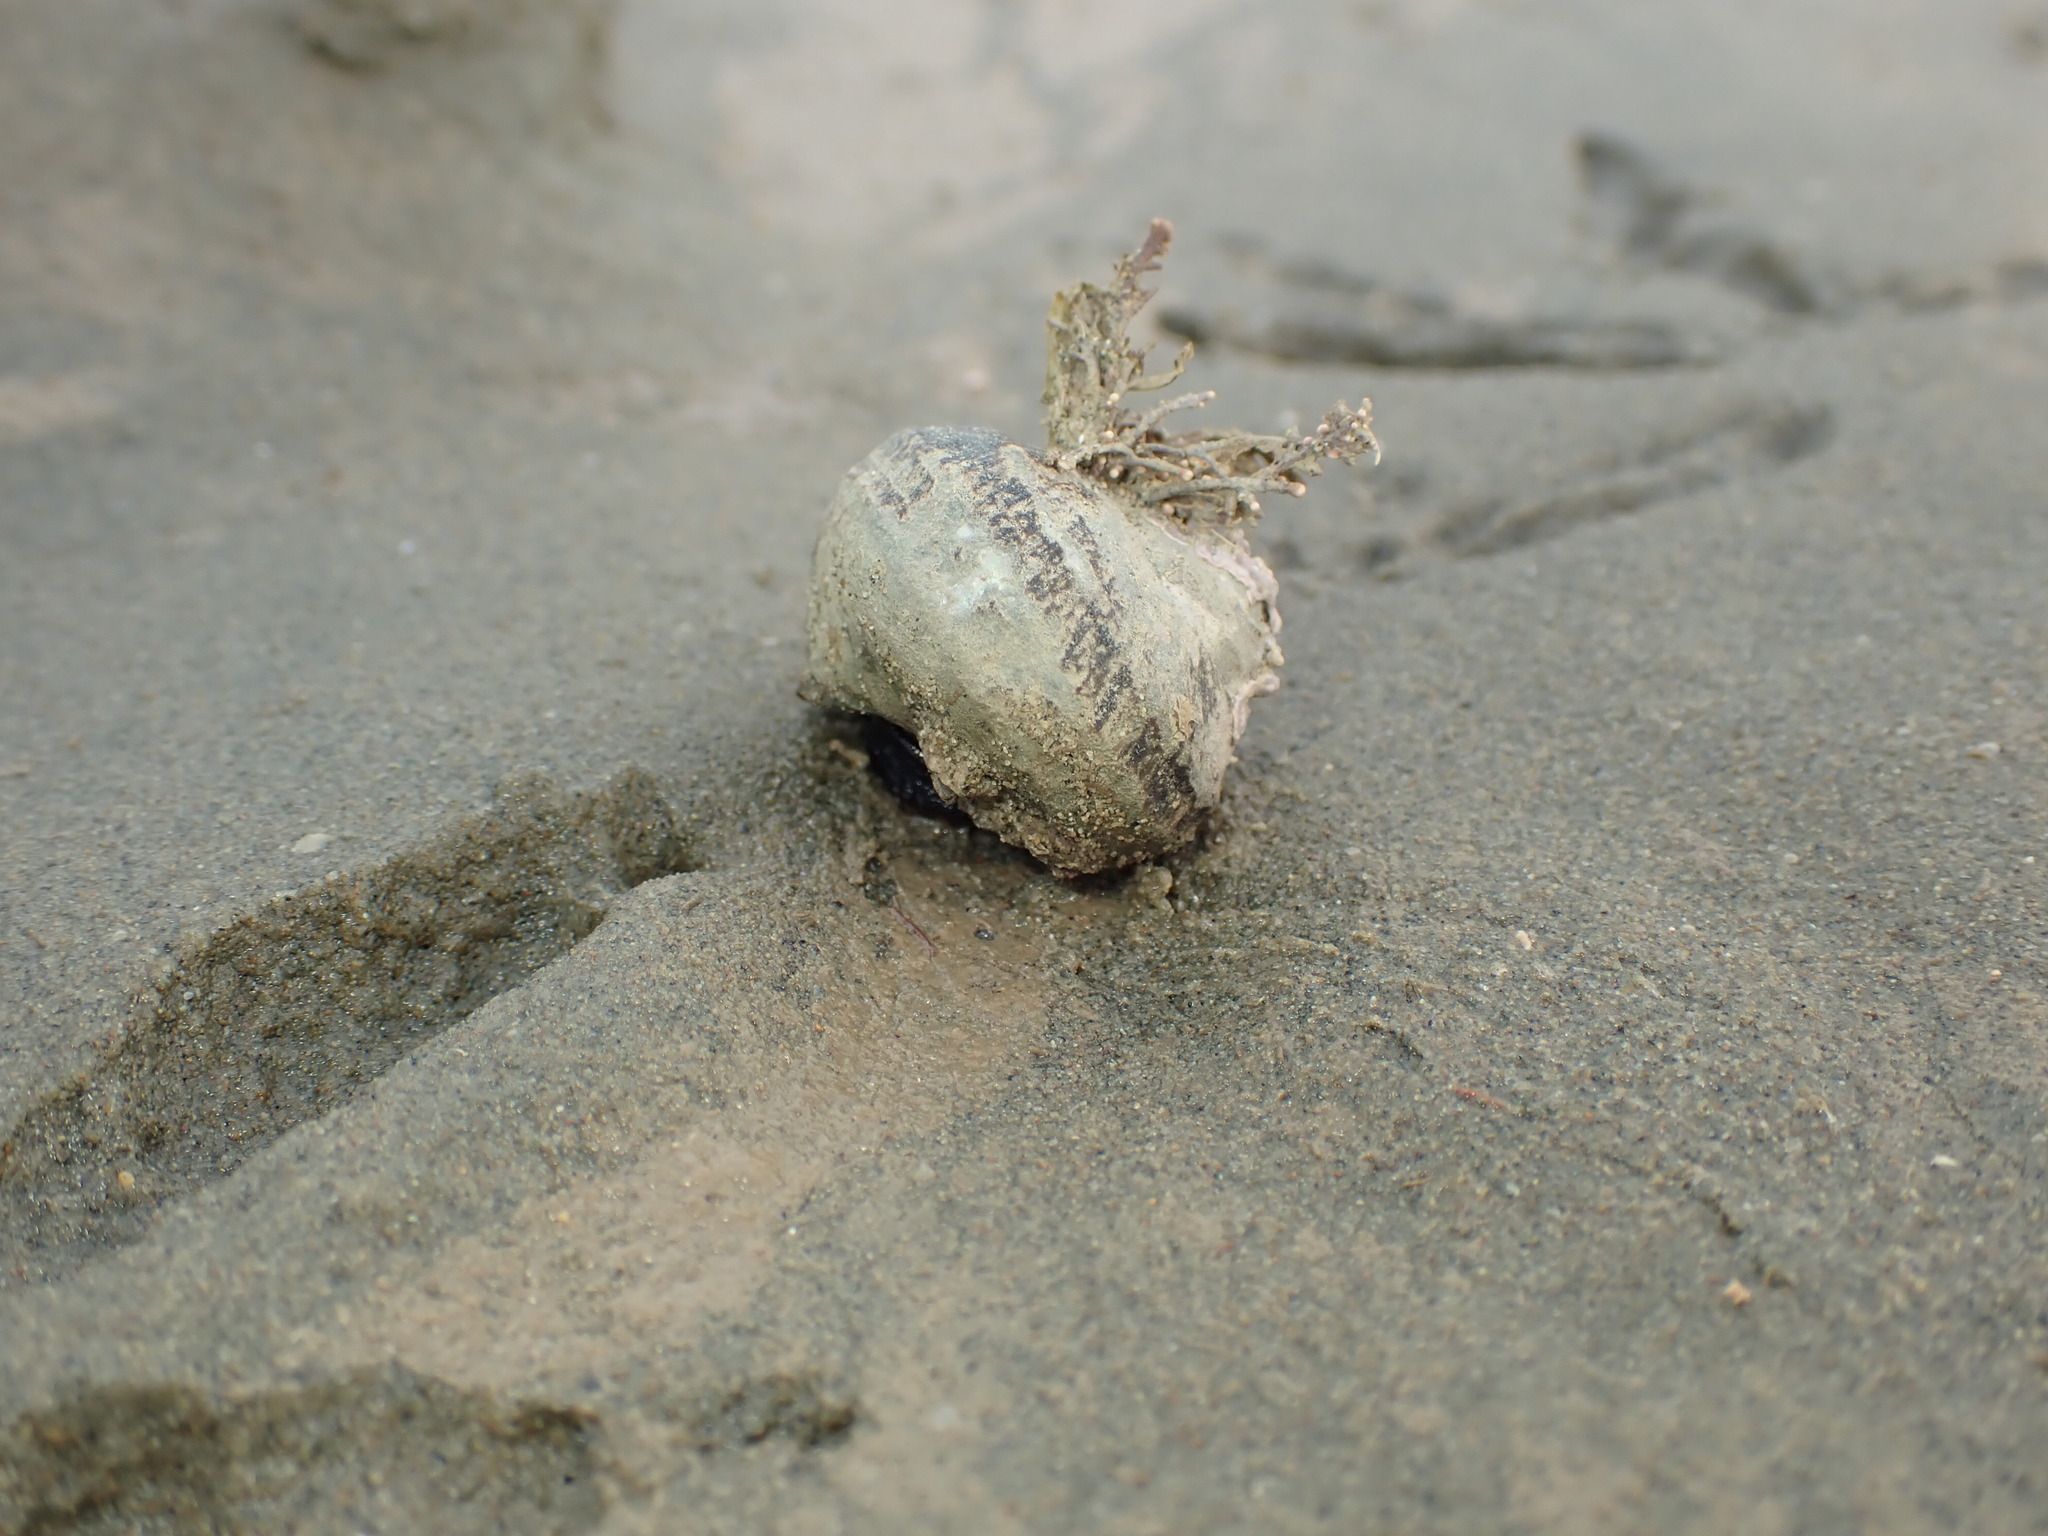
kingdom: Animalia
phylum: Mollusca
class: Gastropoda
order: Trochida
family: Turbinidae
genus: Lunella
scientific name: Lunella smaragda
